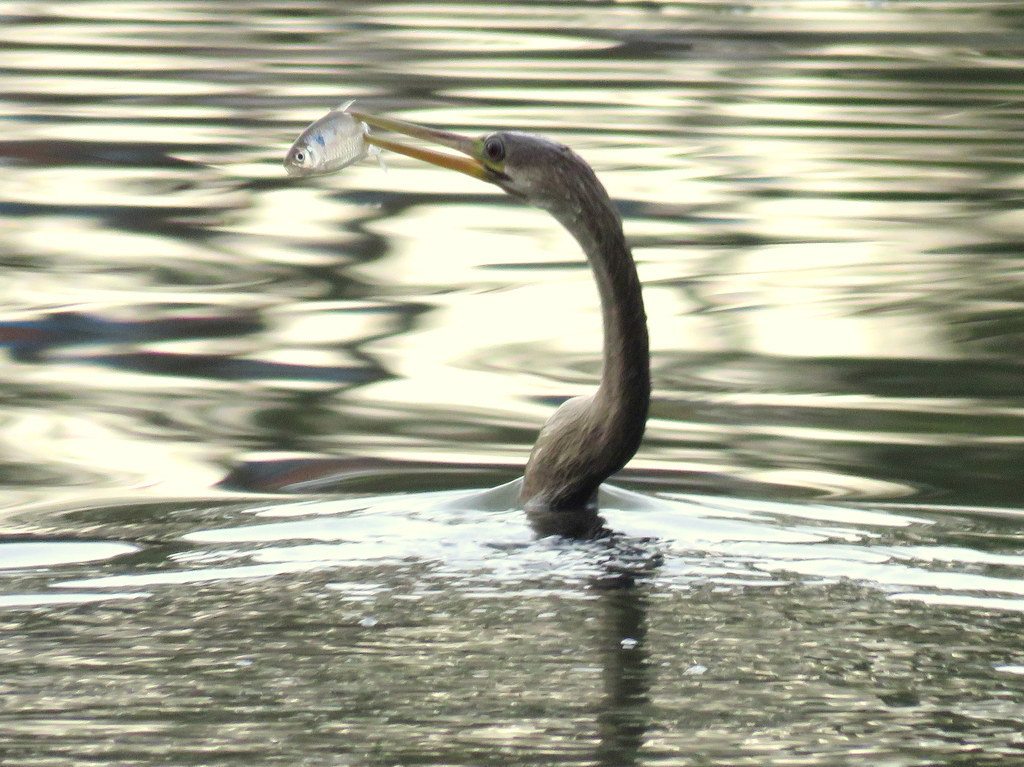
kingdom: Animalia
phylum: Chordata
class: Aves
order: Suliformes
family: Anhingidae
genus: Anhinga
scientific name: Anhinga anhinga
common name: Anhinga
